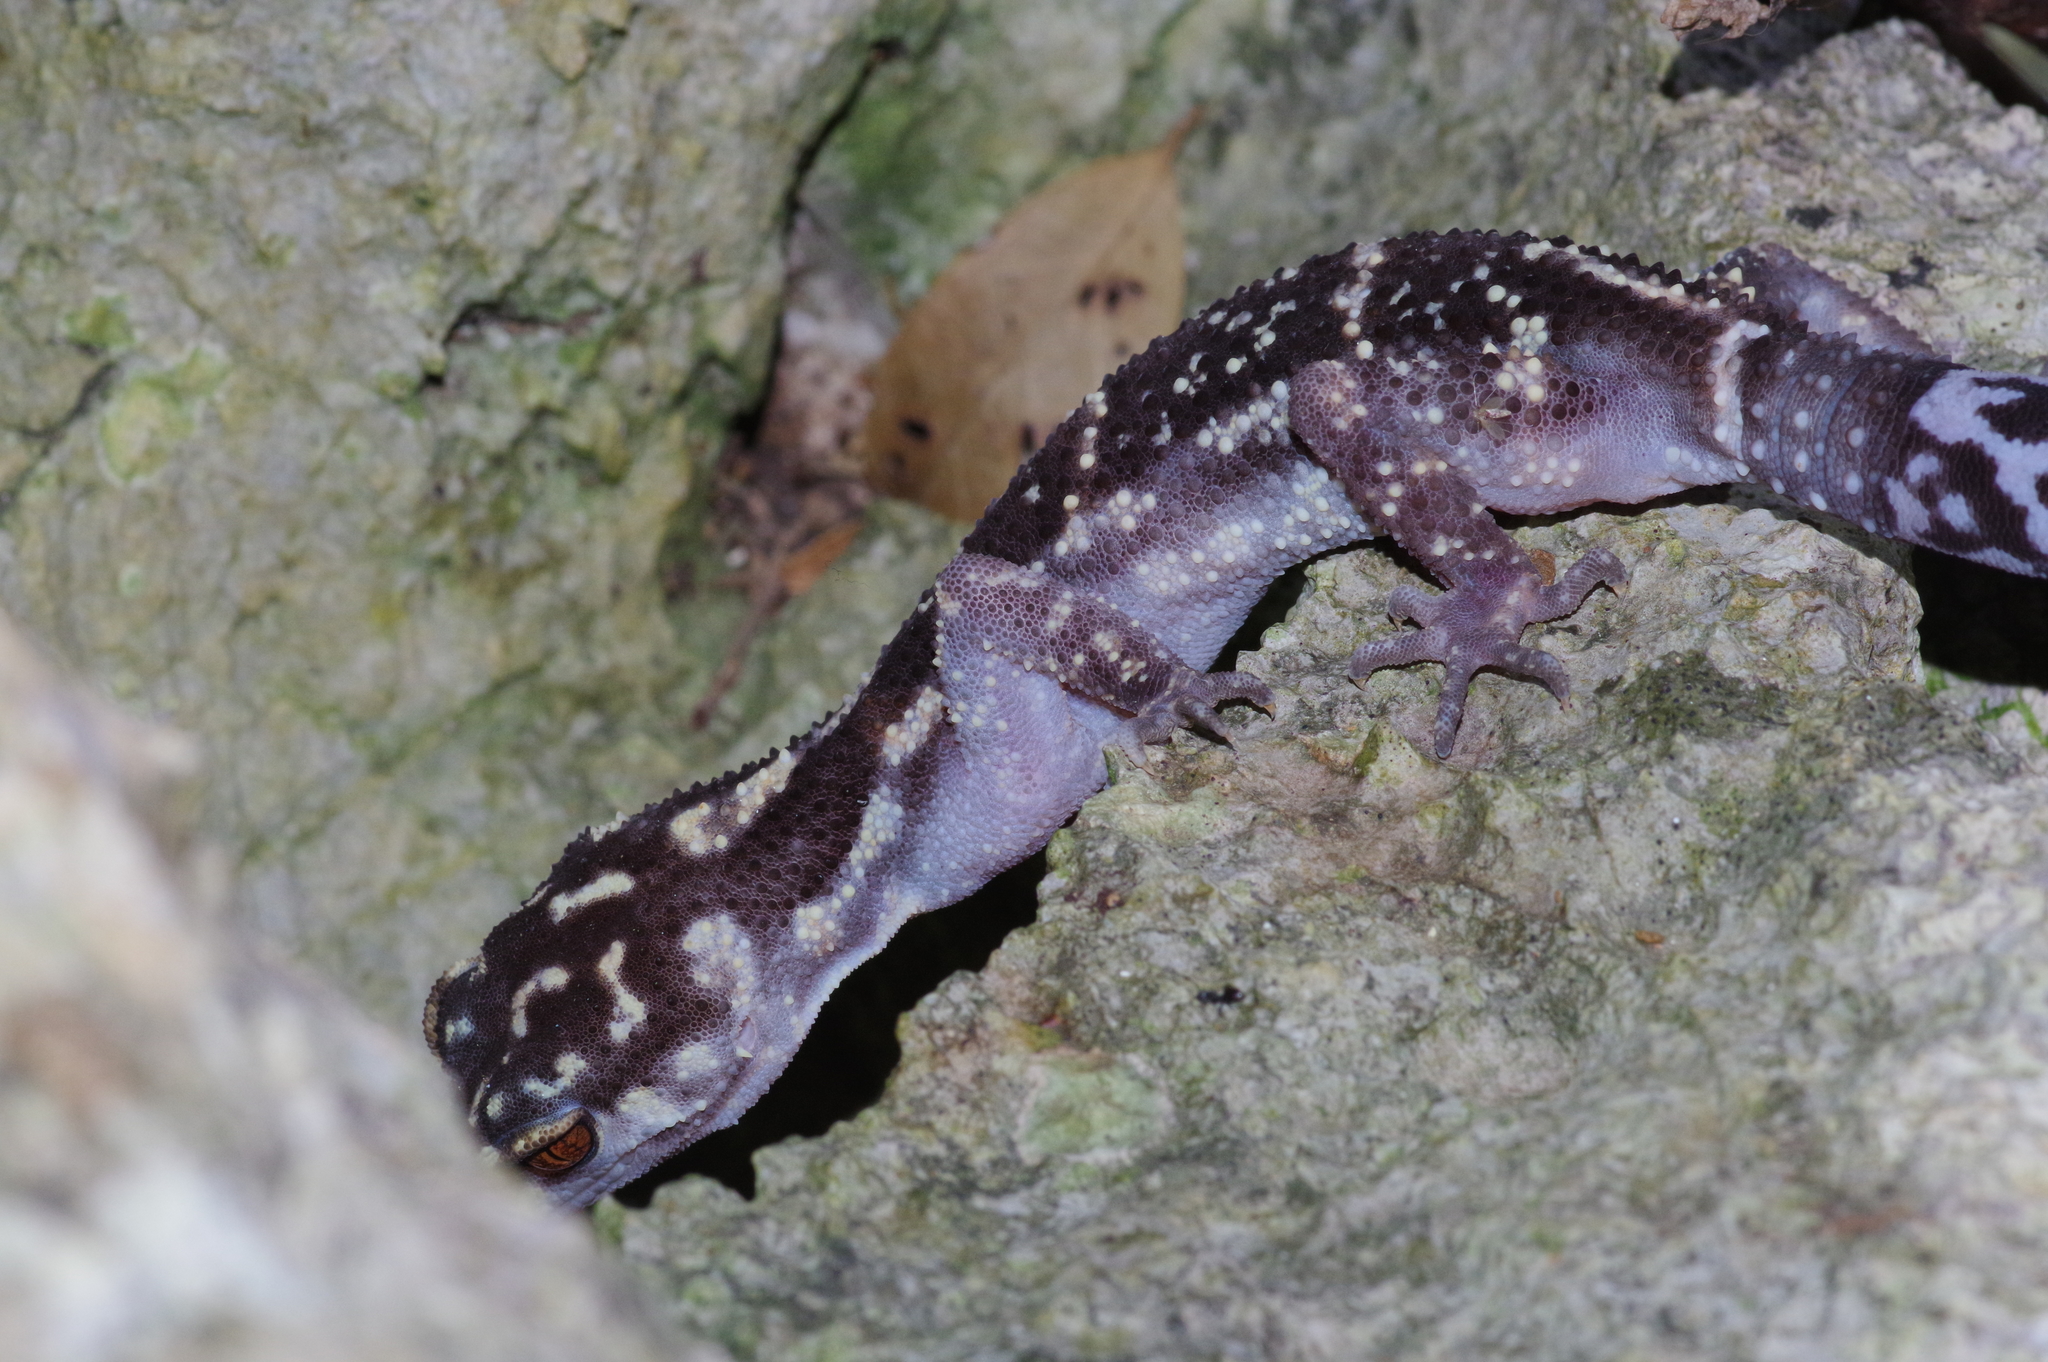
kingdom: Animalia
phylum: Chordata
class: Squamata
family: Eublepharidae
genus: Goniurosaurus
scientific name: Goniurosaurus kuroiwae
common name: Tokashiki gecko
